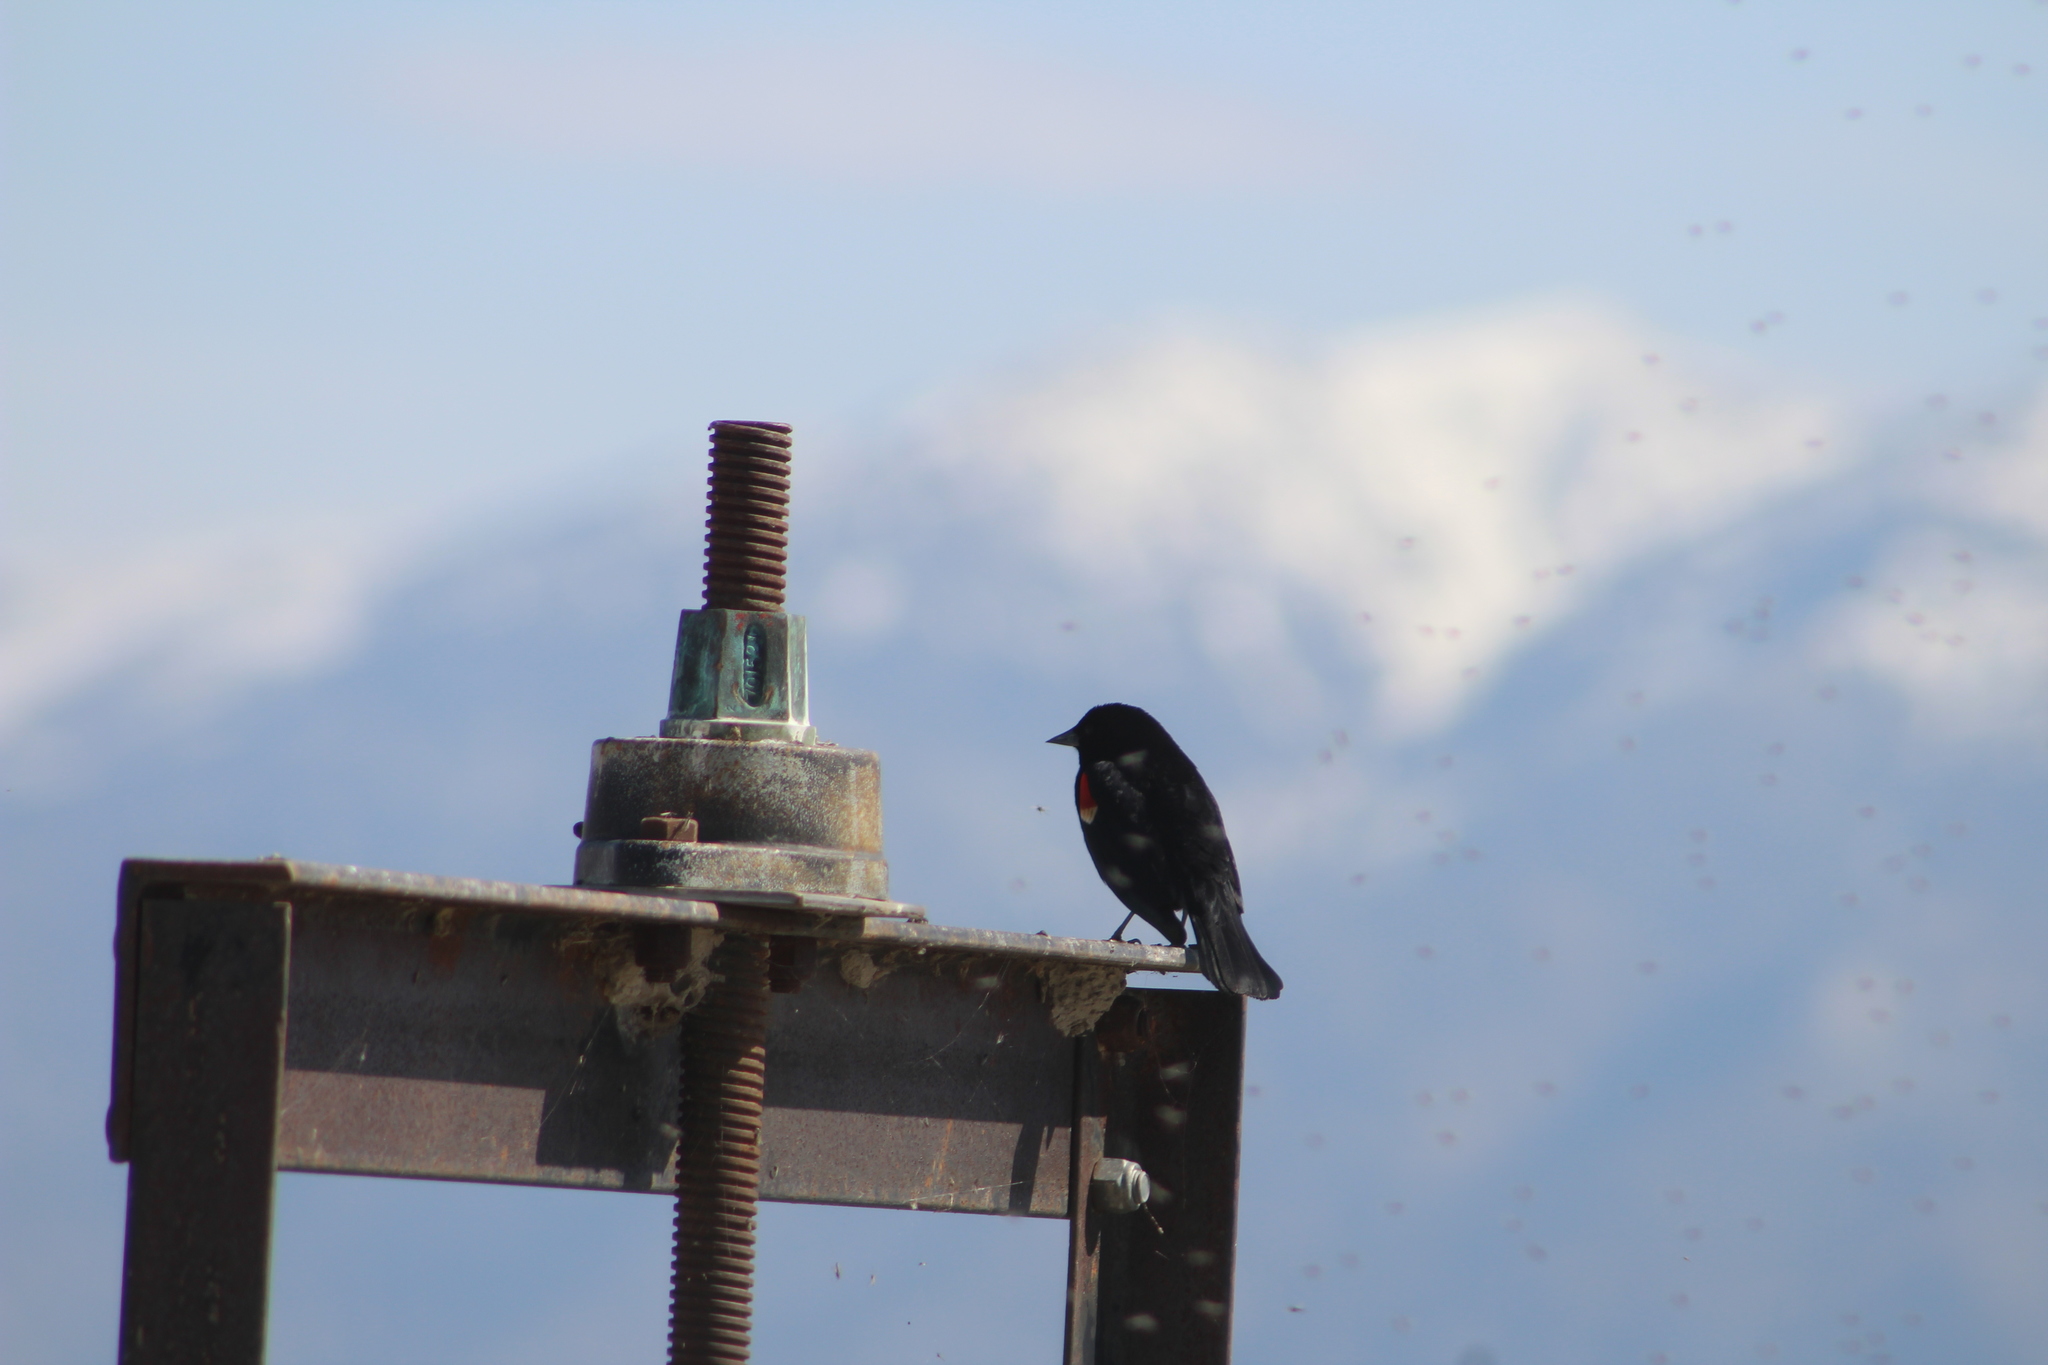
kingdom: Animalia
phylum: Chordata
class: Aves
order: Passeriformes
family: Icteridae
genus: Agelaius
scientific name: Agelaius phoeniceus
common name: Red-winged blackbird
